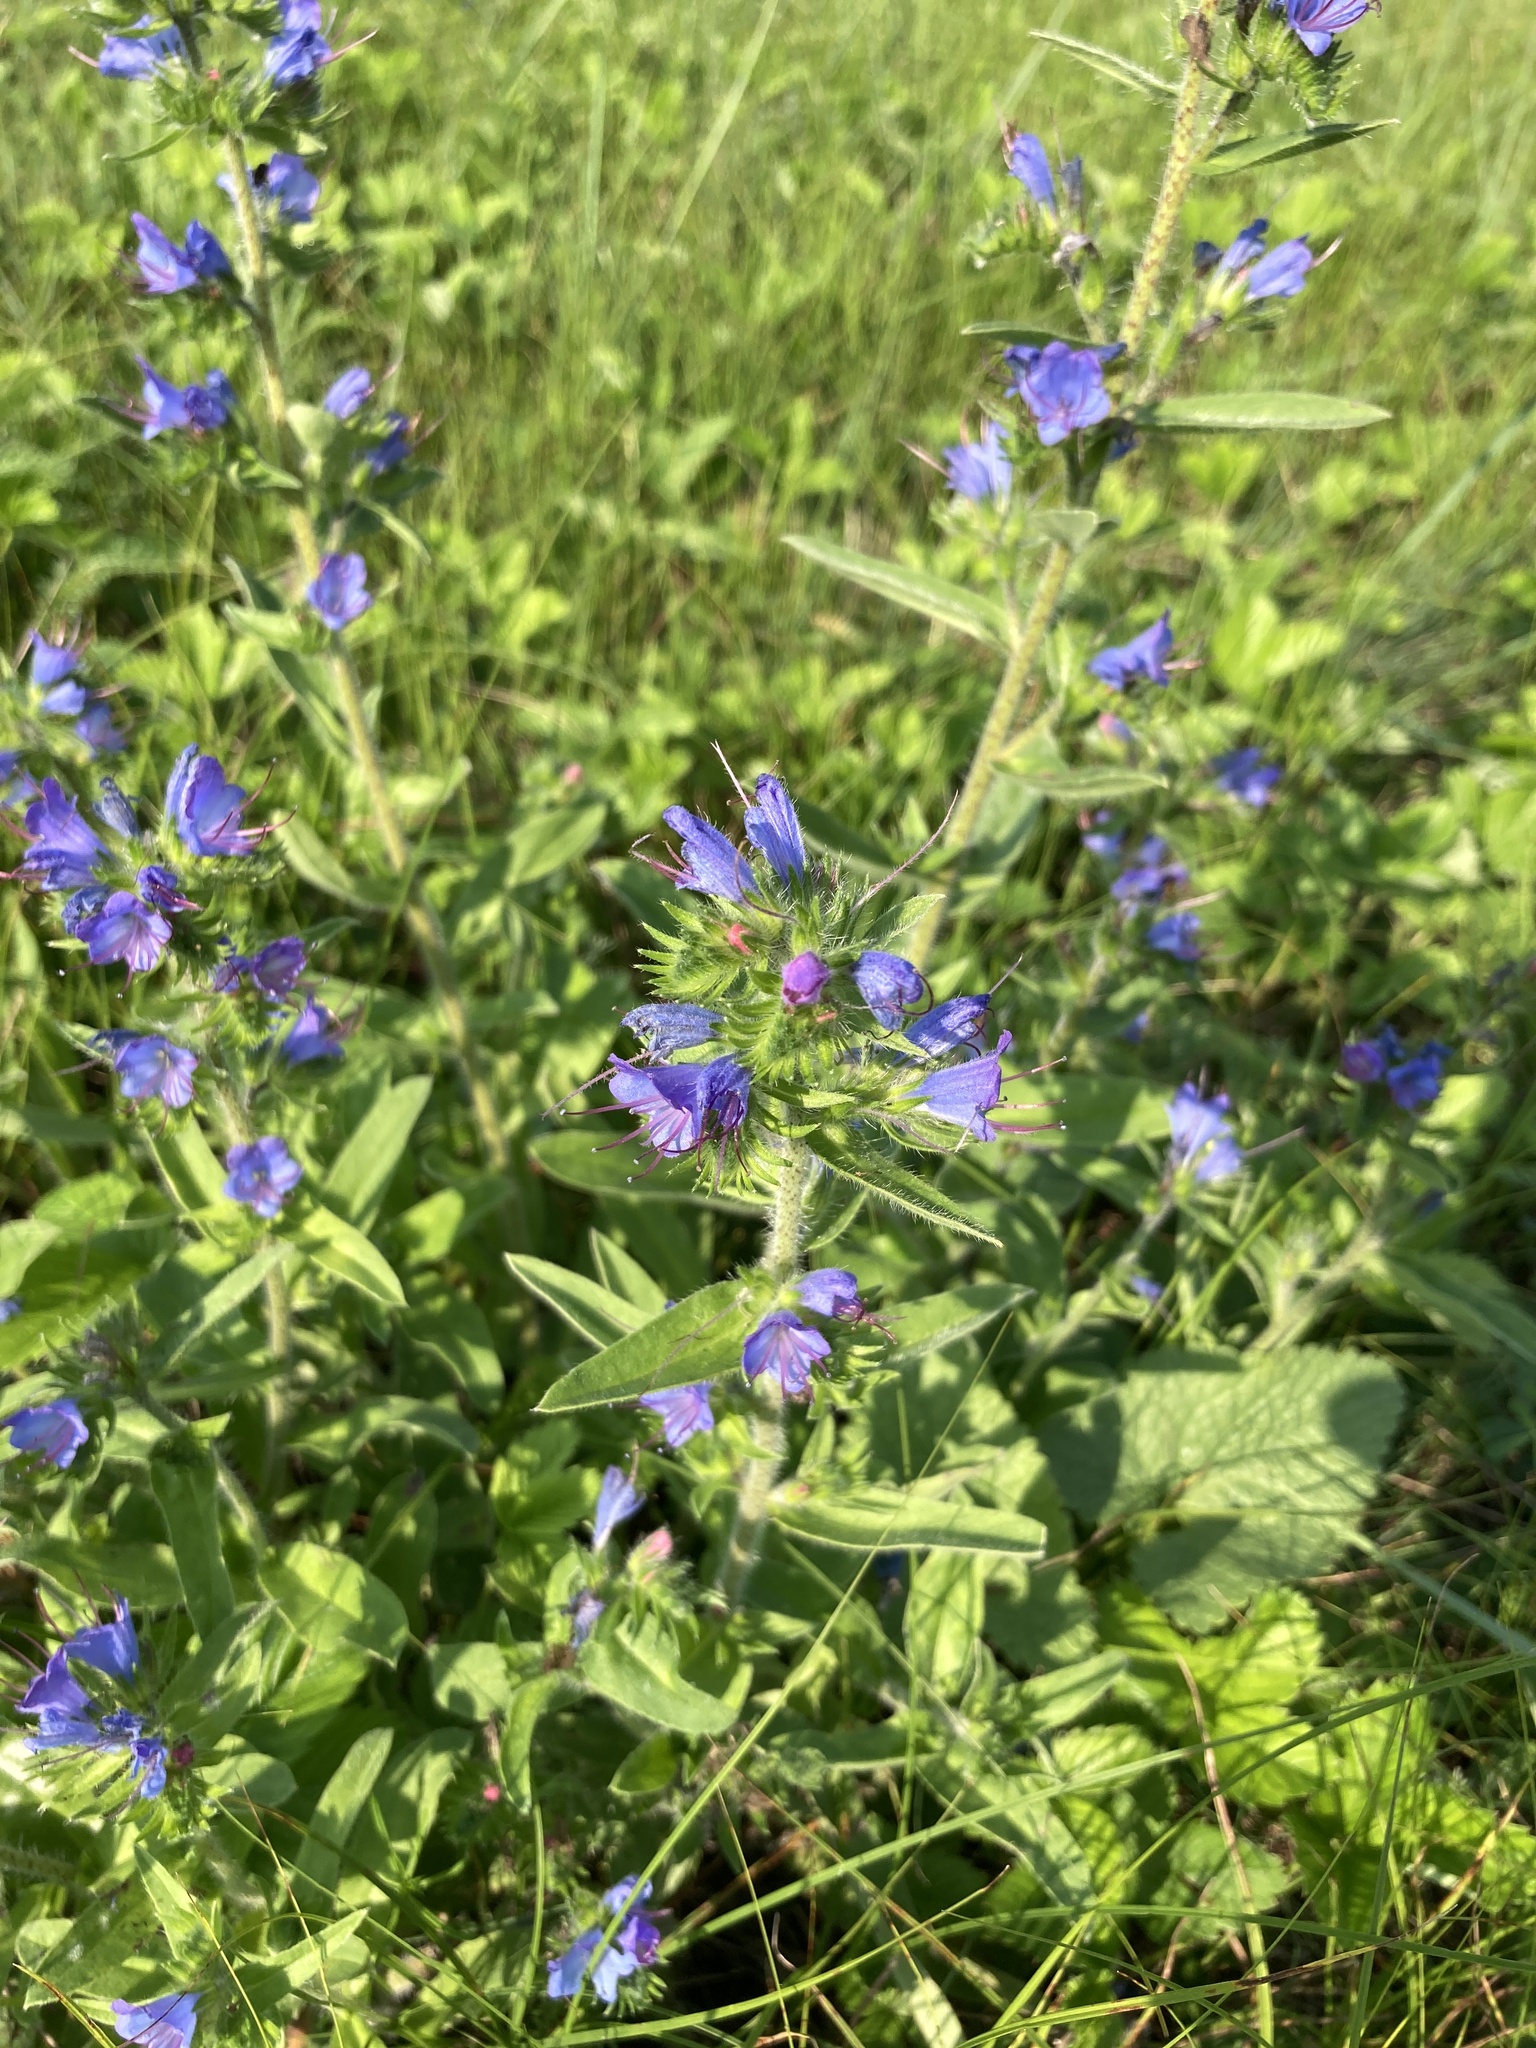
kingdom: Plantae
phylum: Tracheophyta
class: Magnoliopsida
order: Boraginales
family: Boraginaceae
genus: Echium
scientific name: Echium vulgare
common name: Common viper's bugloss
